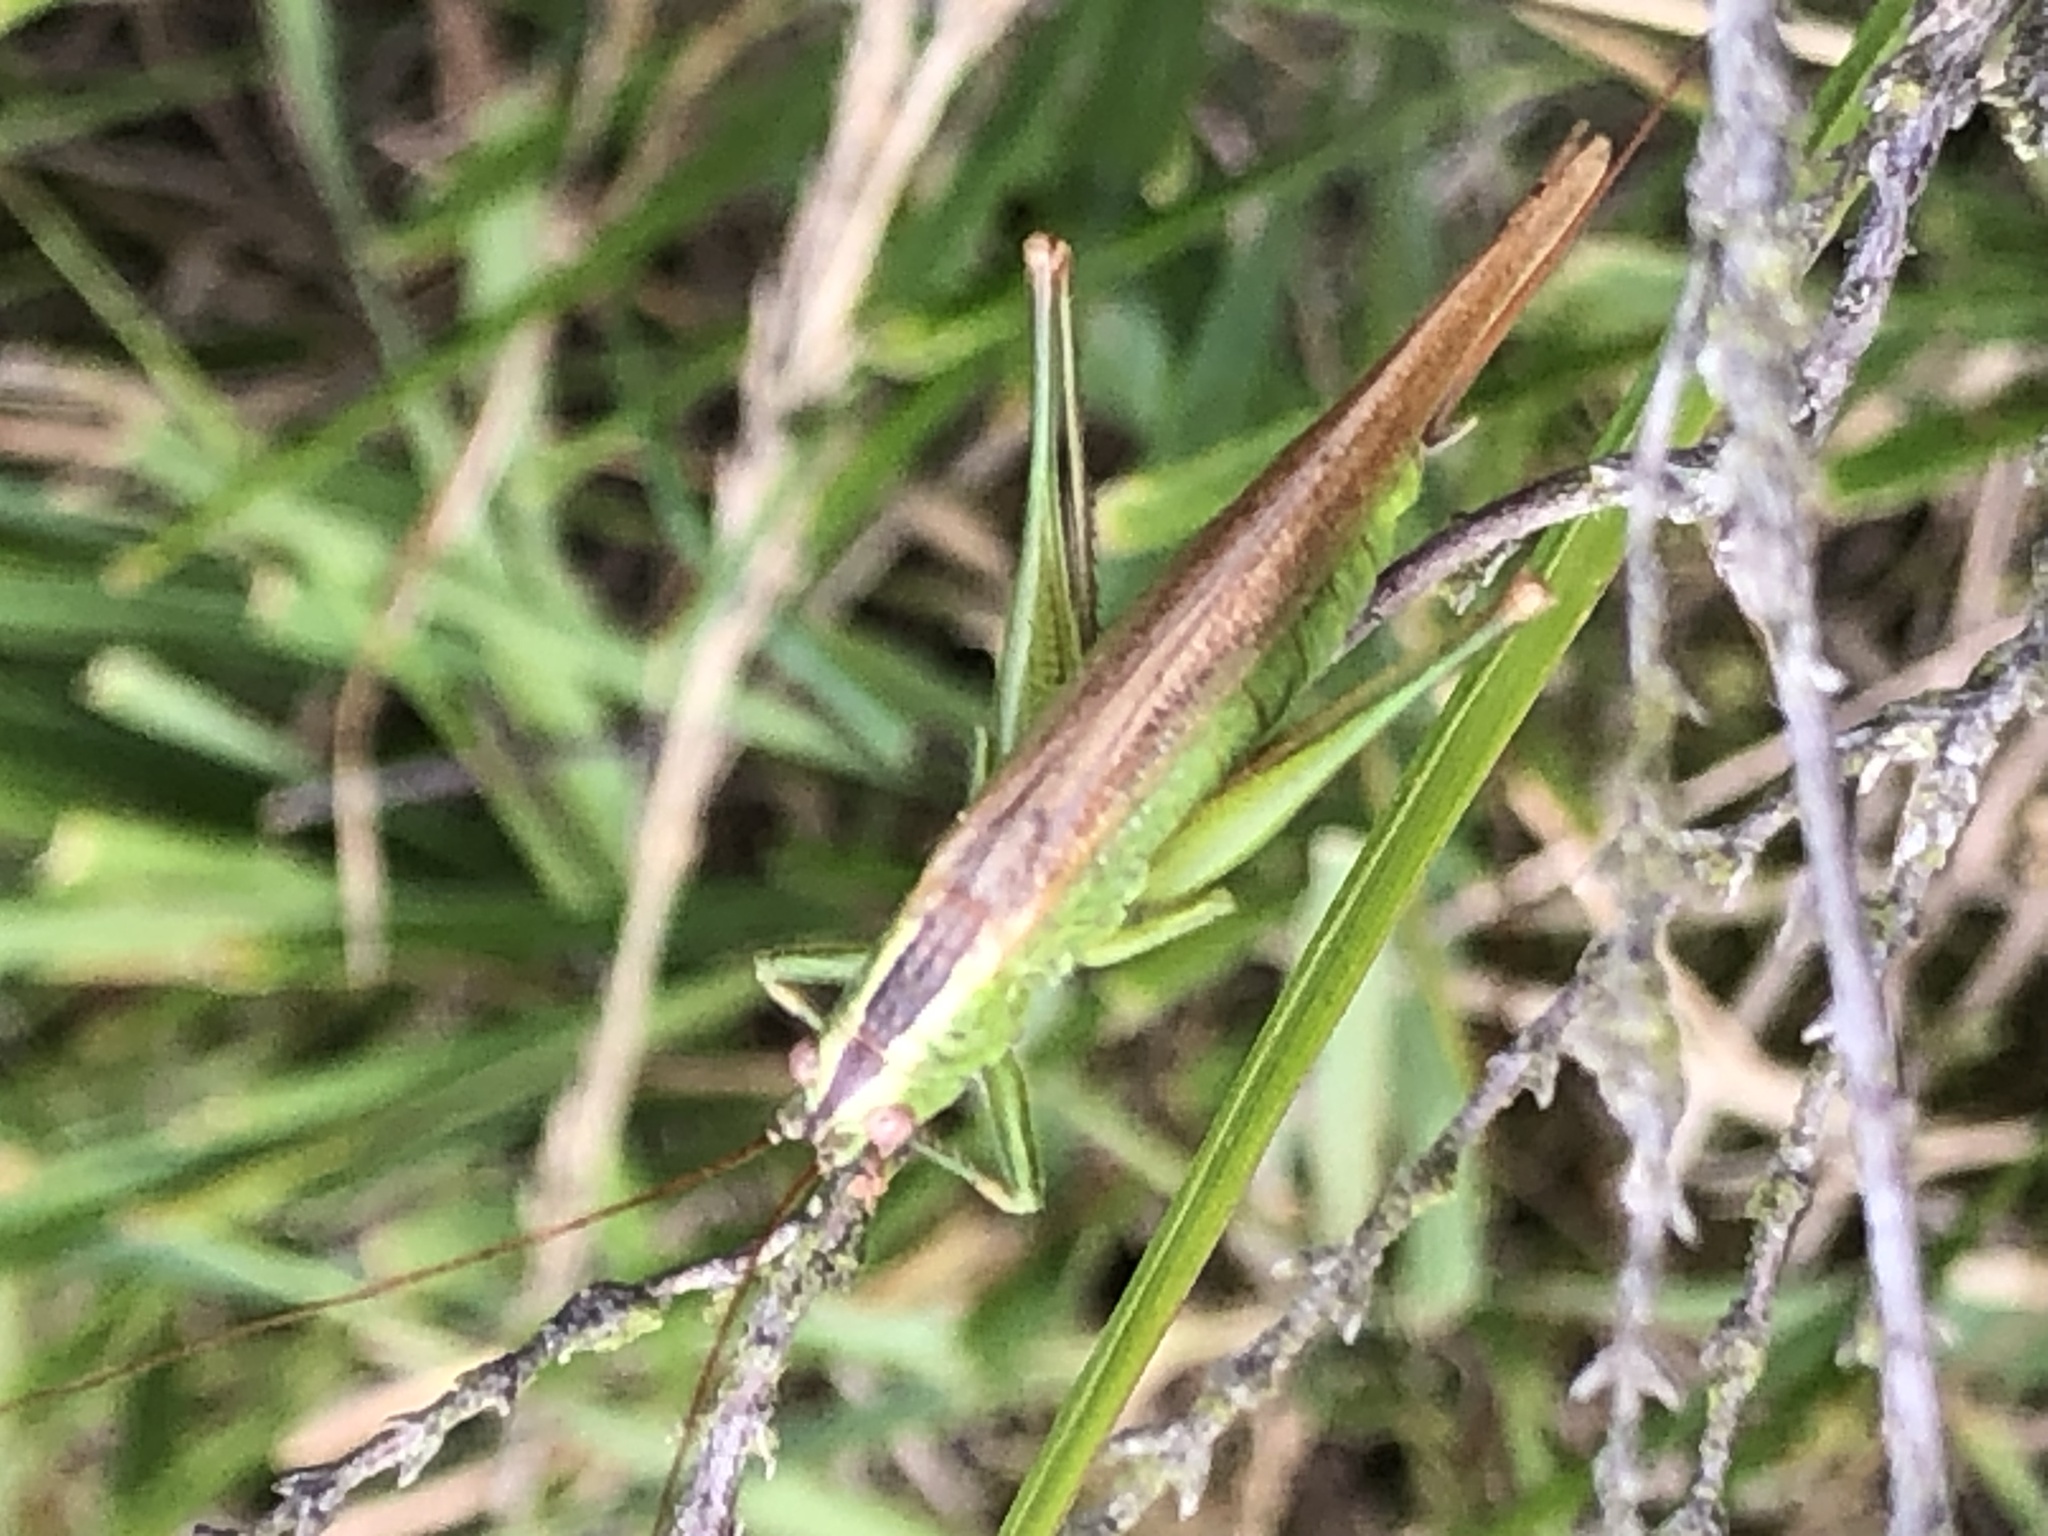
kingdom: Animalia
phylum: Arthropoda
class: Insecta
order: Orthoptera
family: Tettigoniidae
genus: Conocephalus
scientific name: Conocephalus fuscus
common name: Long-winged conehead
